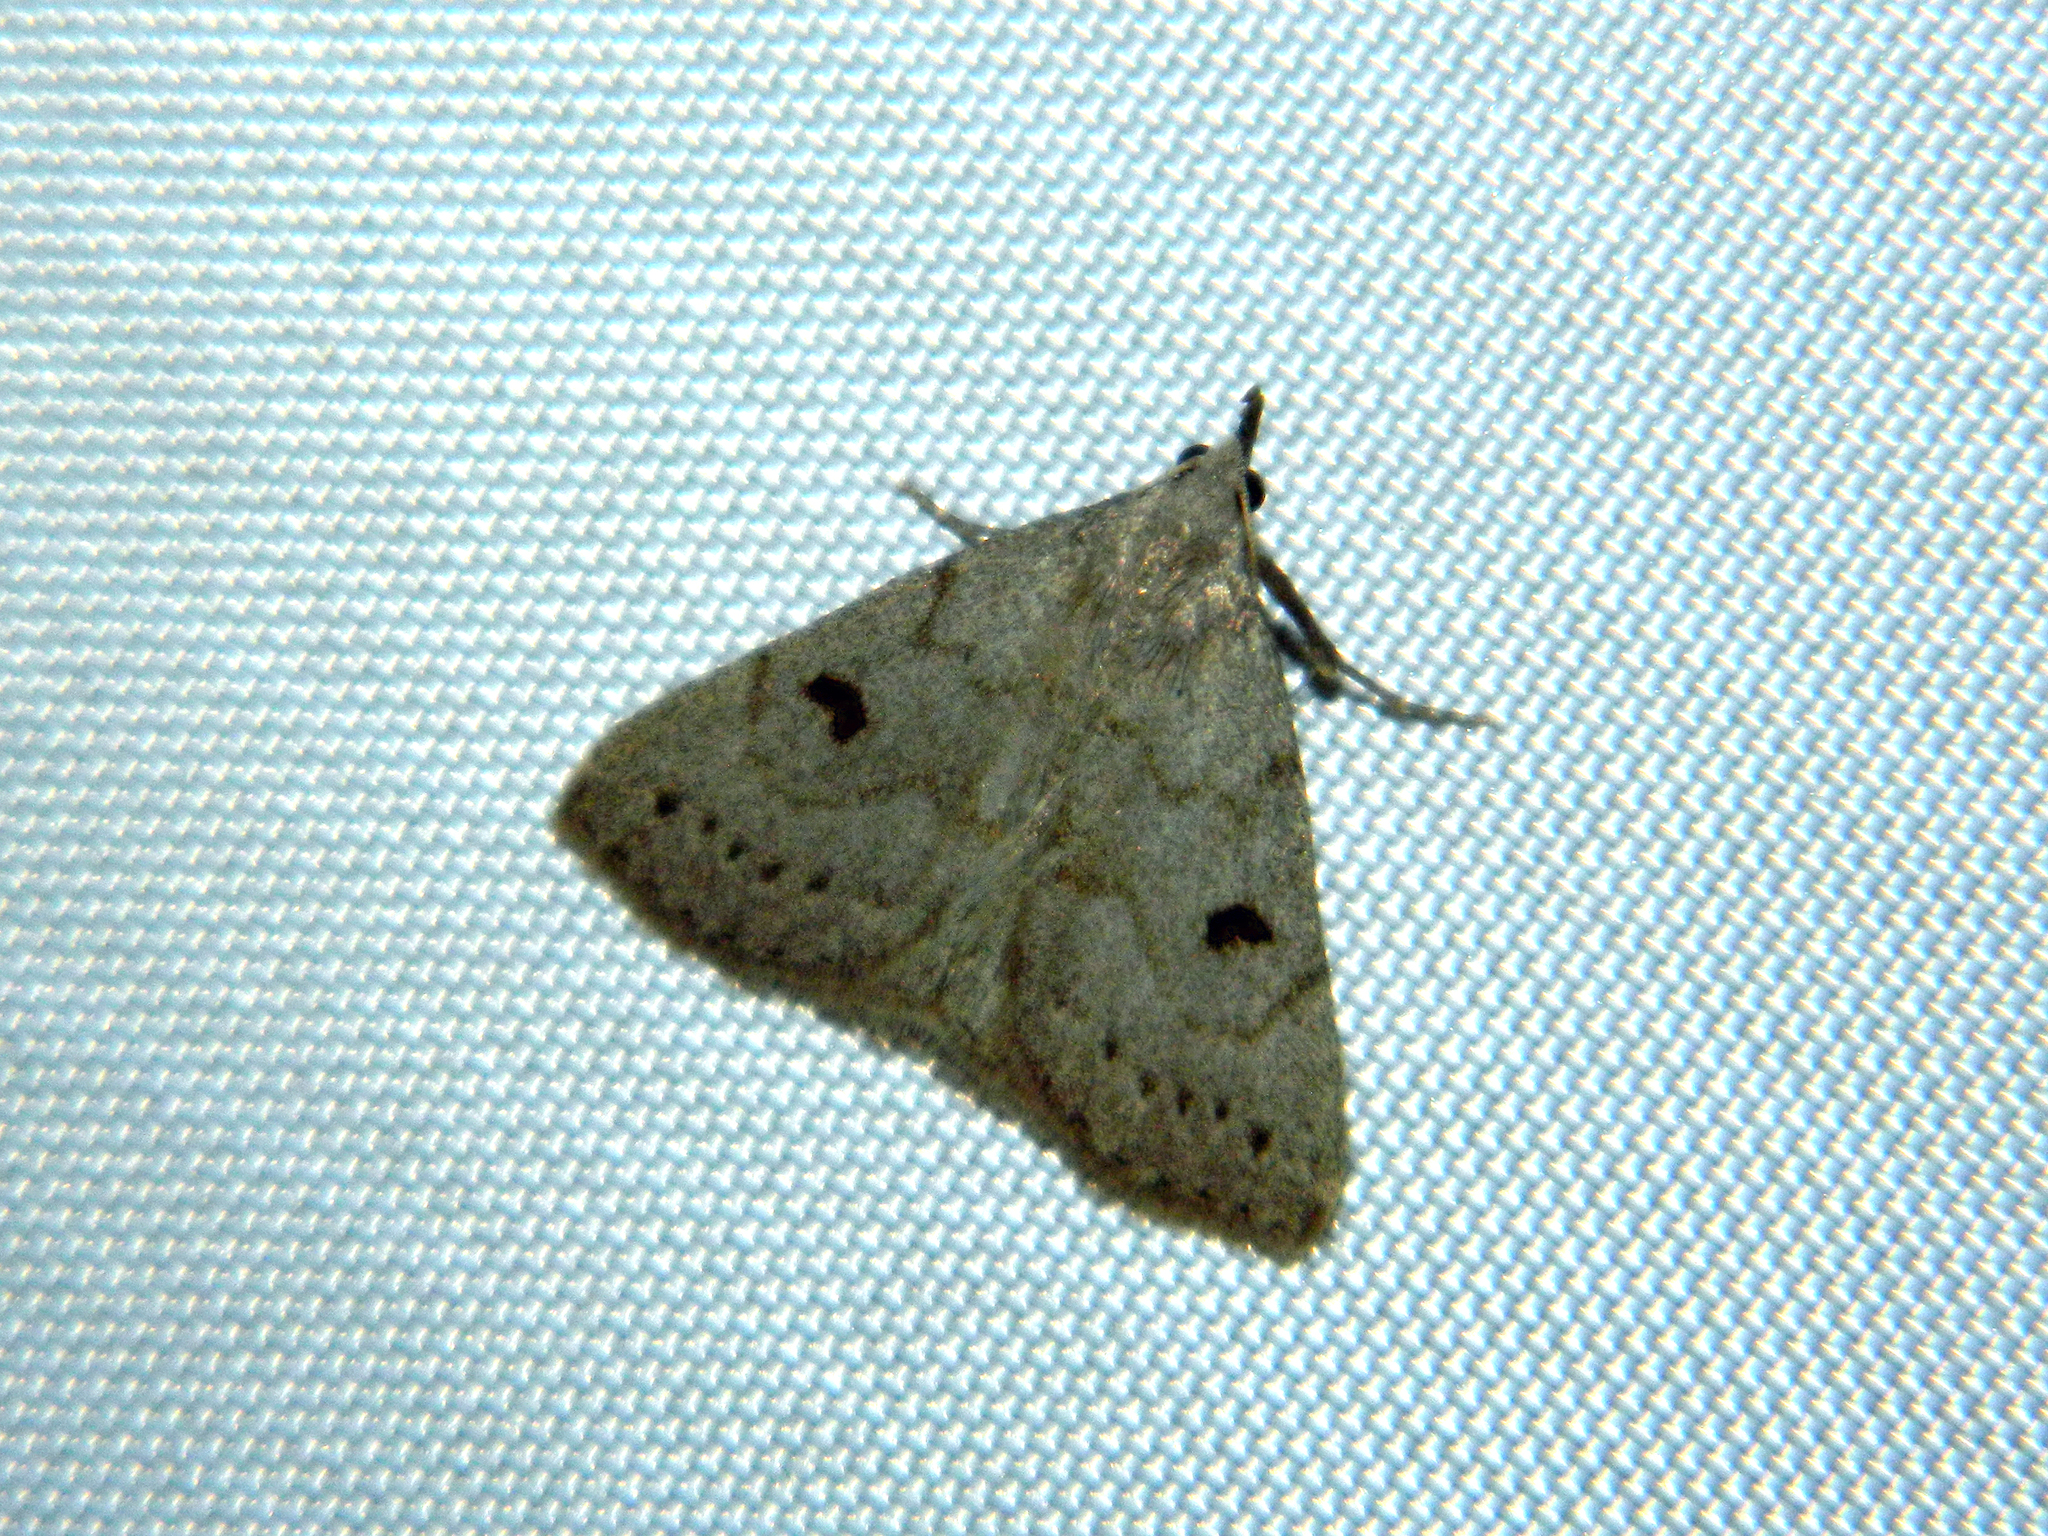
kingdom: Animalia
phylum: Arthropoda
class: Insecta
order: Lepidoptera
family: Erebidae
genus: Macrochilo
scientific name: Macrochilo morbidalis
